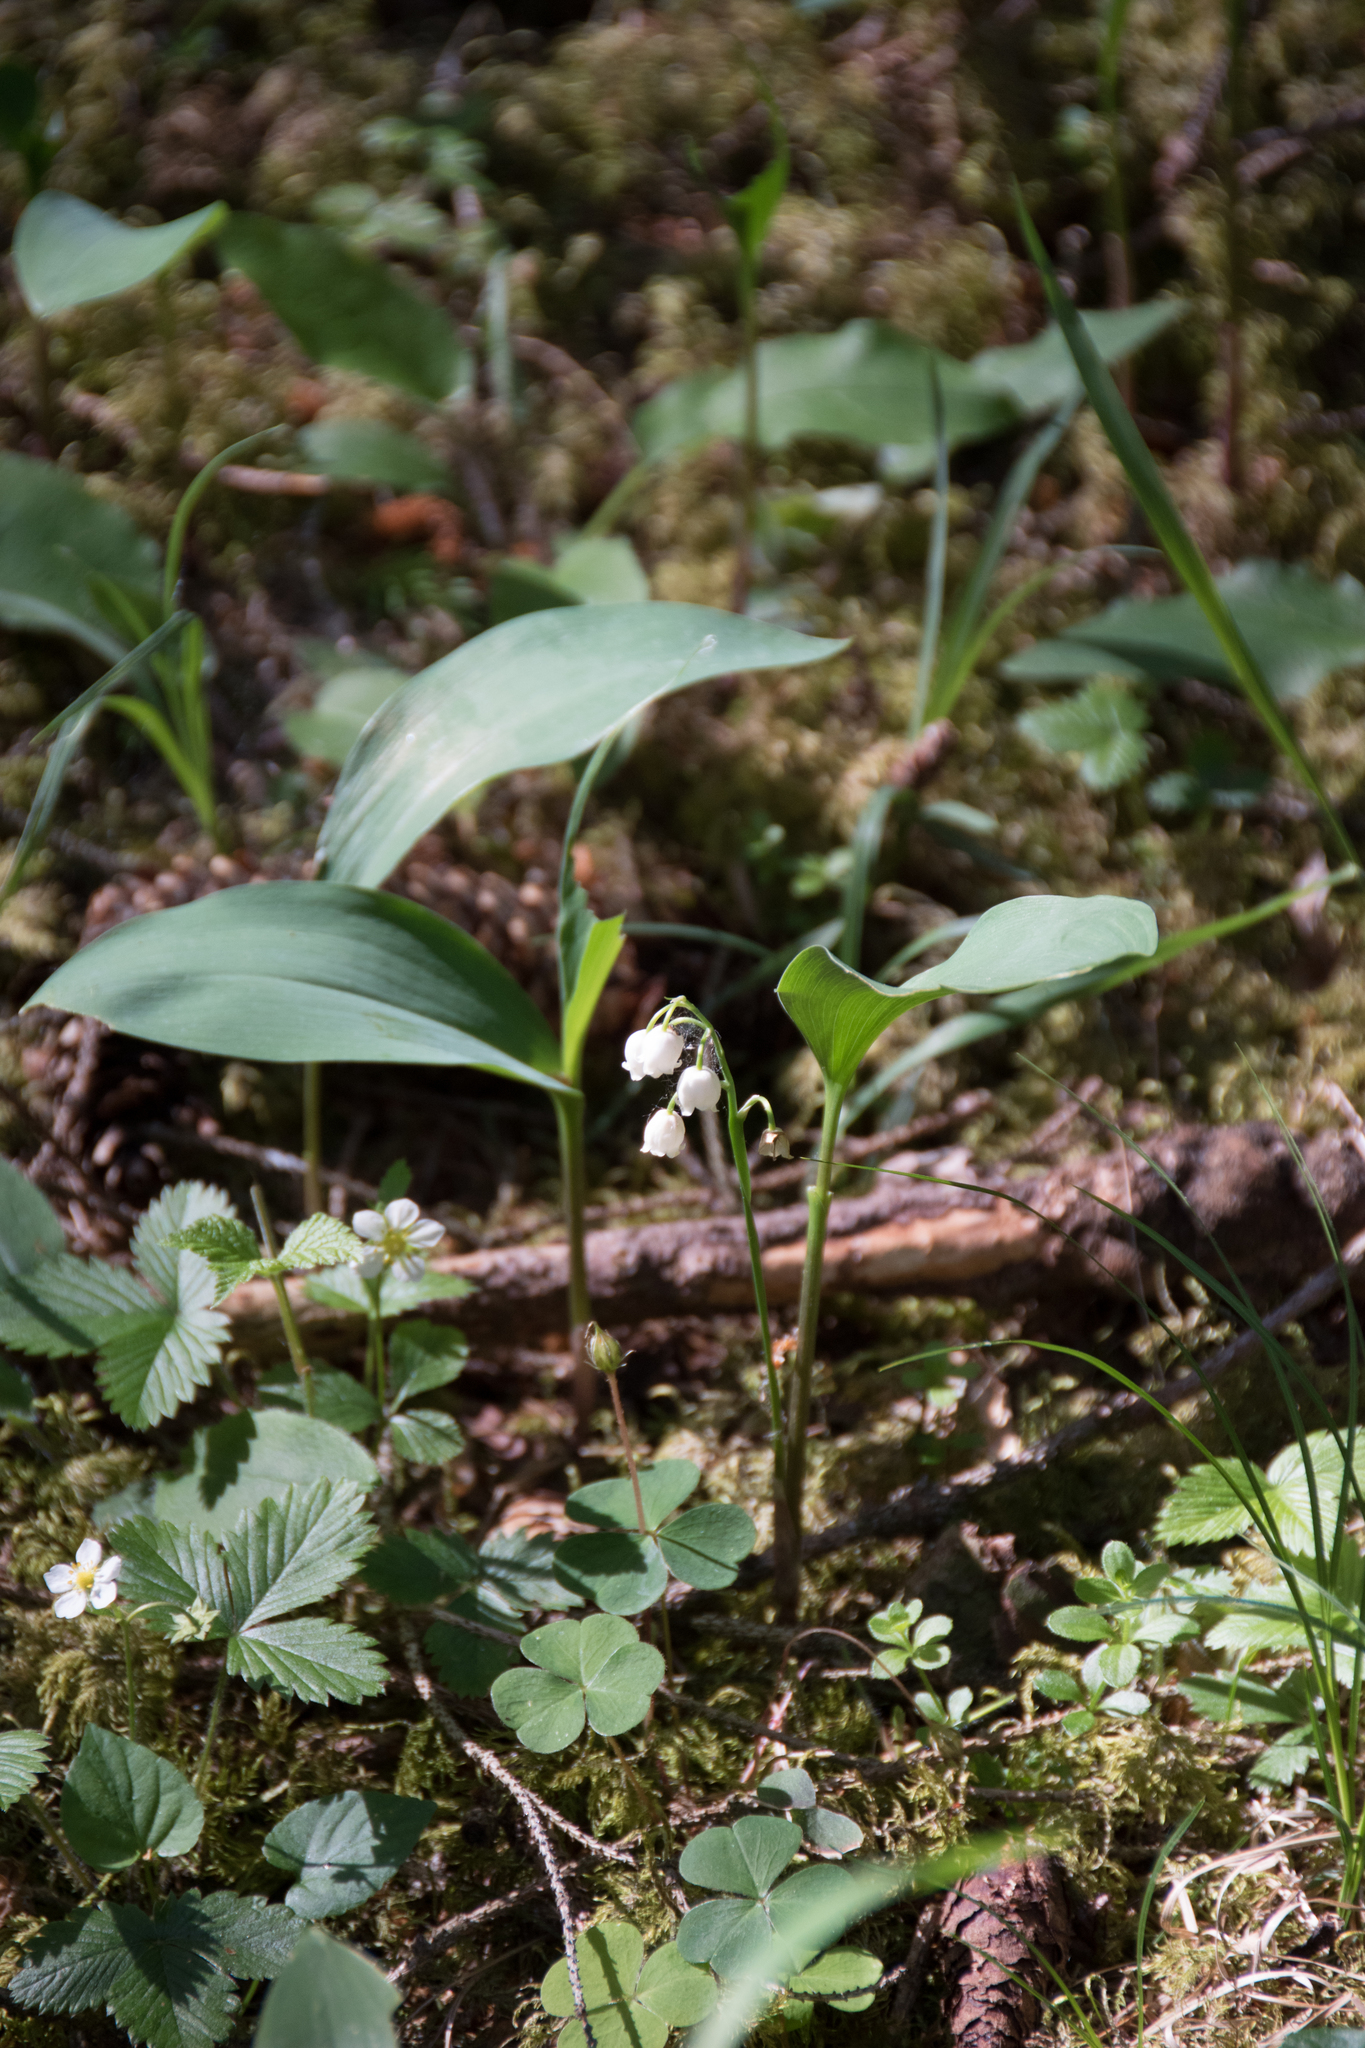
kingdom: Plantae
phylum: Tracheophyta
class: Liliopsida
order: Asparagales
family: Asparagaceae
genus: Convallaria
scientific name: Convallaria majalis
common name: Lily-of-the-valley
